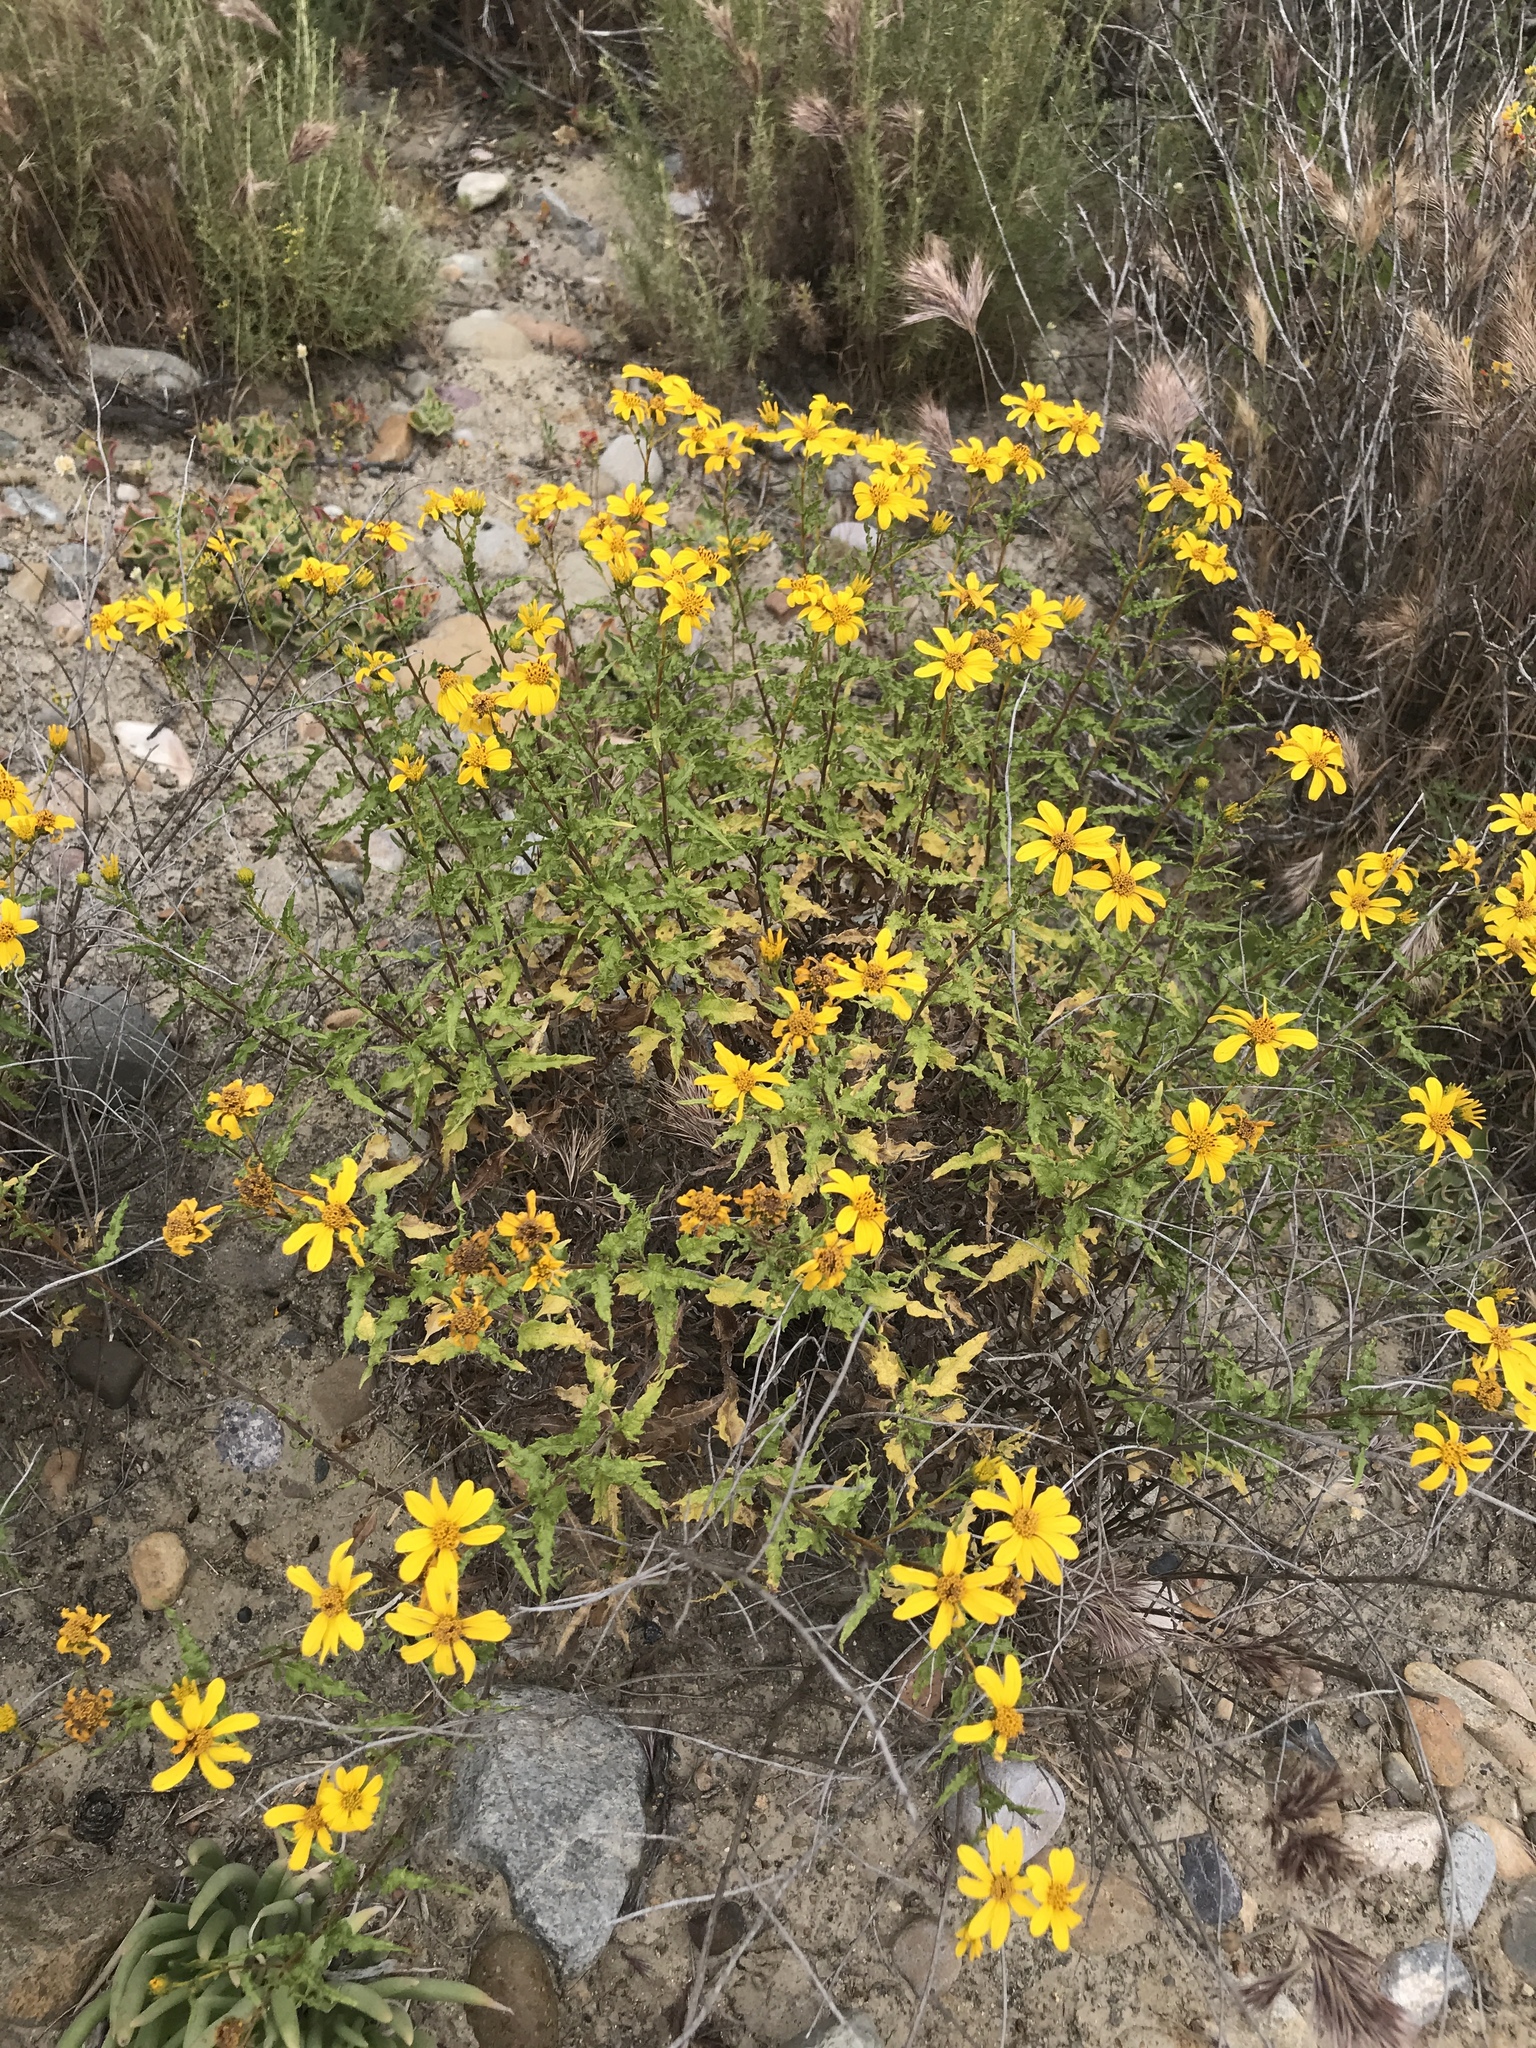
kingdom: Plantae
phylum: Tracheophyta
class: Magnoliopsida
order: Asterales
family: Asteraceae
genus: Bahiopsis
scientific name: Bahiopsis laciniata
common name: San diego county viguiera
